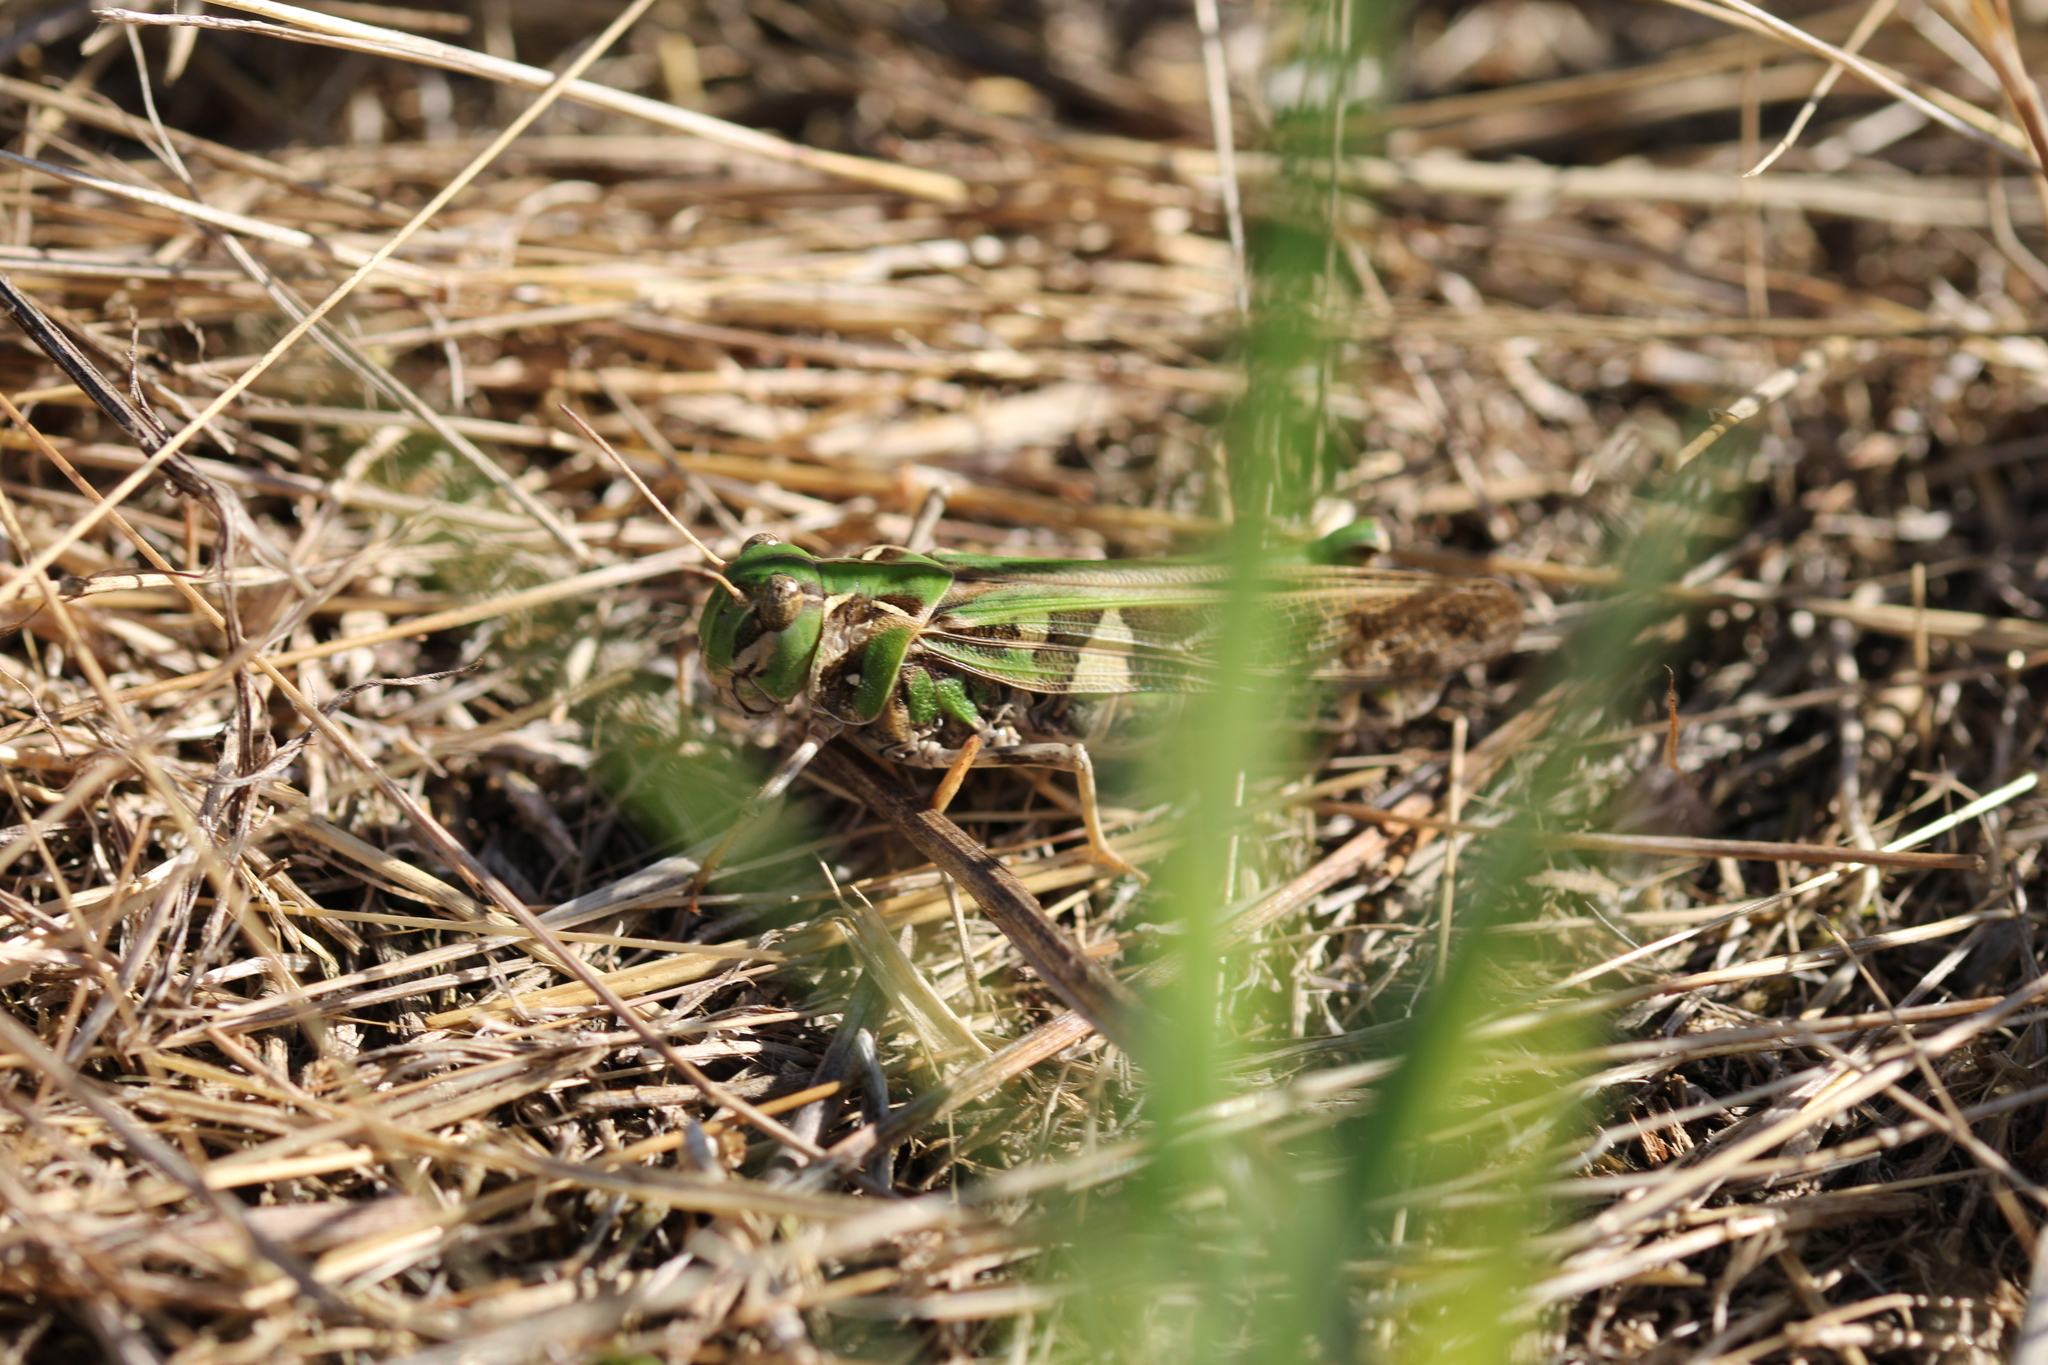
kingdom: Animalia
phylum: Arthropoda
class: Insecta
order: Orthoptera
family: Acrididae
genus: Oedaleus
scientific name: Oedaleus decorus
